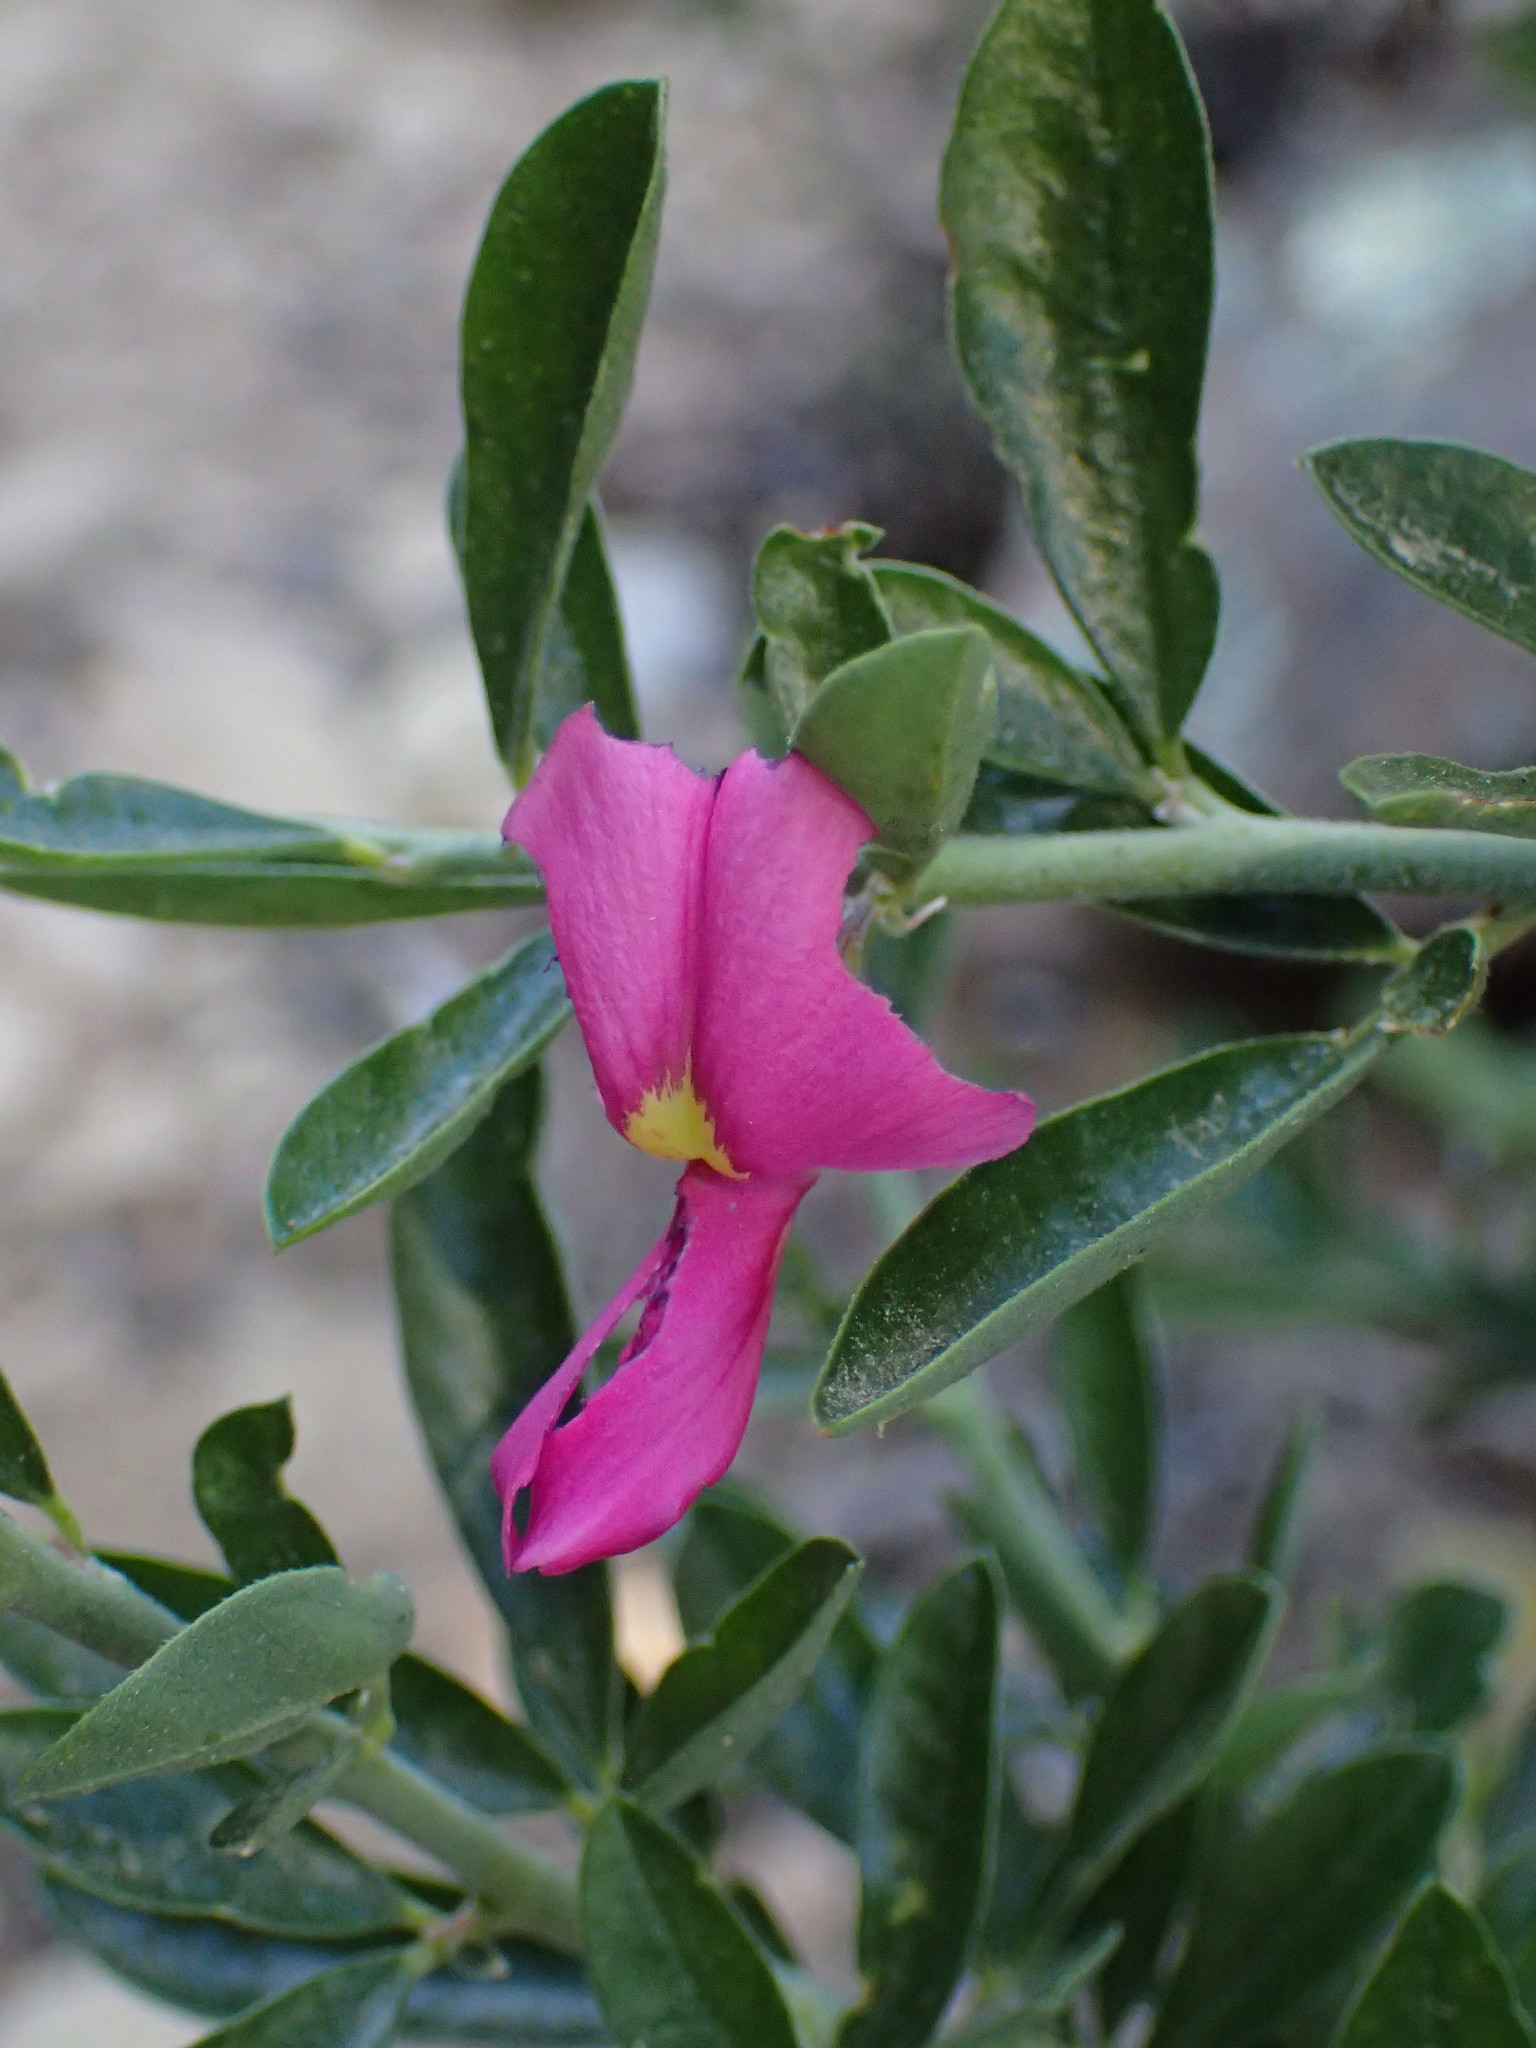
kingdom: Plantae
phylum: Tracheophyta
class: Magnoliopsida
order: Fabales
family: Fabaceae
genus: Pickeringia
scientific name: Pickeringia montana
